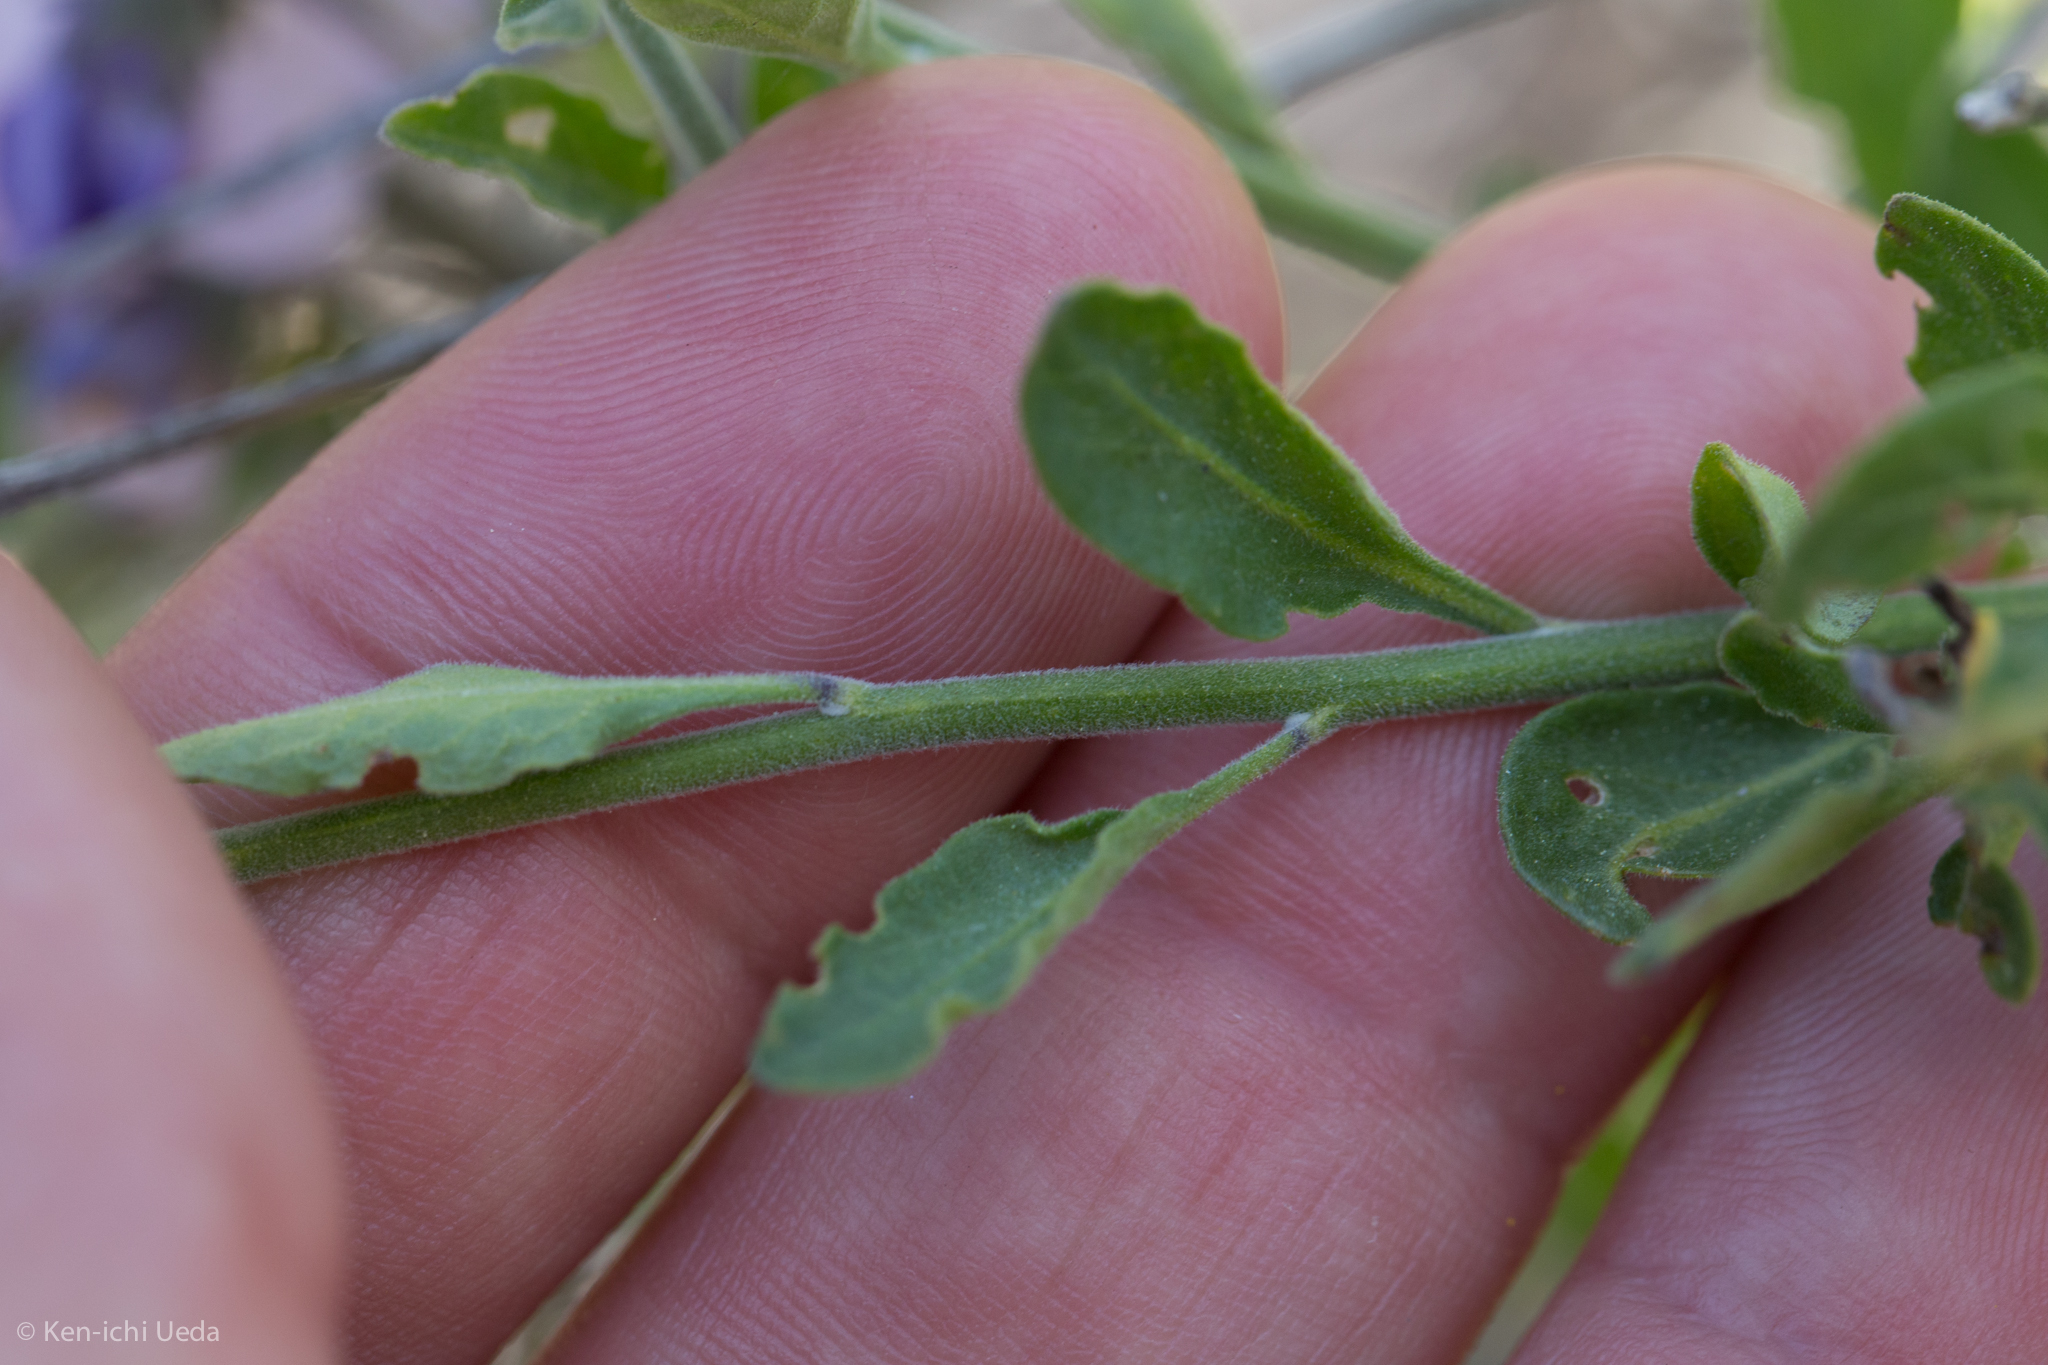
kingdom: Plantae
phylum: Tracheophyta
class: Magnoliopsida
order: Solanales
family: Solanaceae
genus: Solanum
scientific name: Solanum umbelliferum
